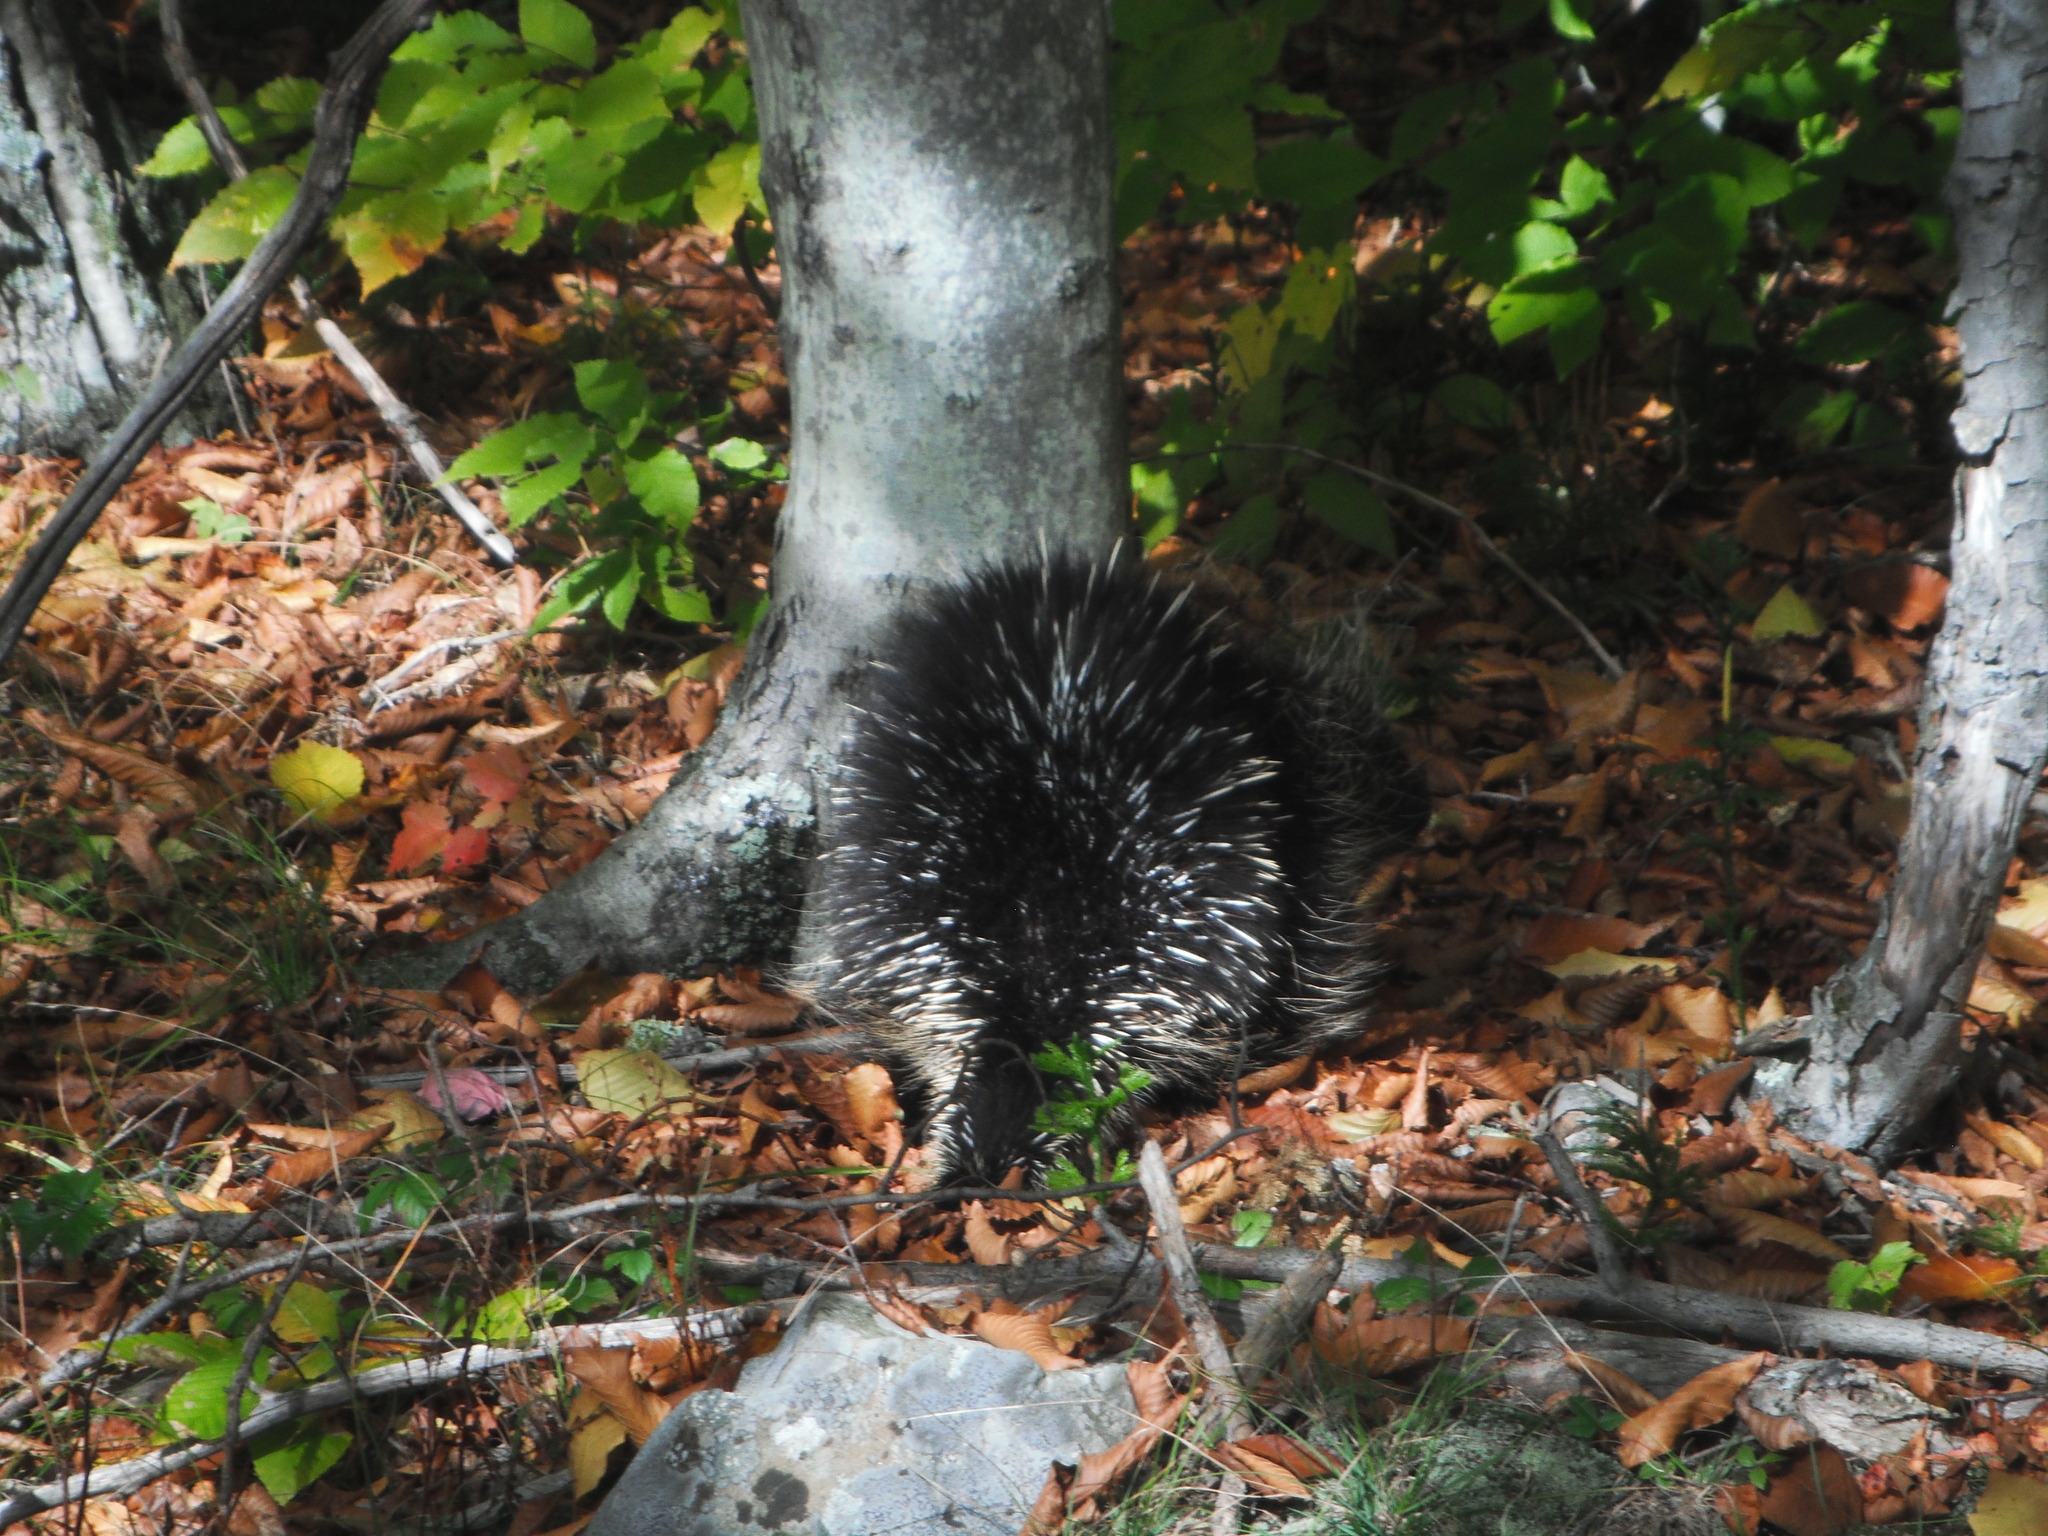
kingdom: Animalia
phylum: Chordata
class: Mammalia
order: Rodentia
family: Erethizontidae
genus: Erethizon
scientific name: Erethizon dorsatus
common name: North american porcupine
